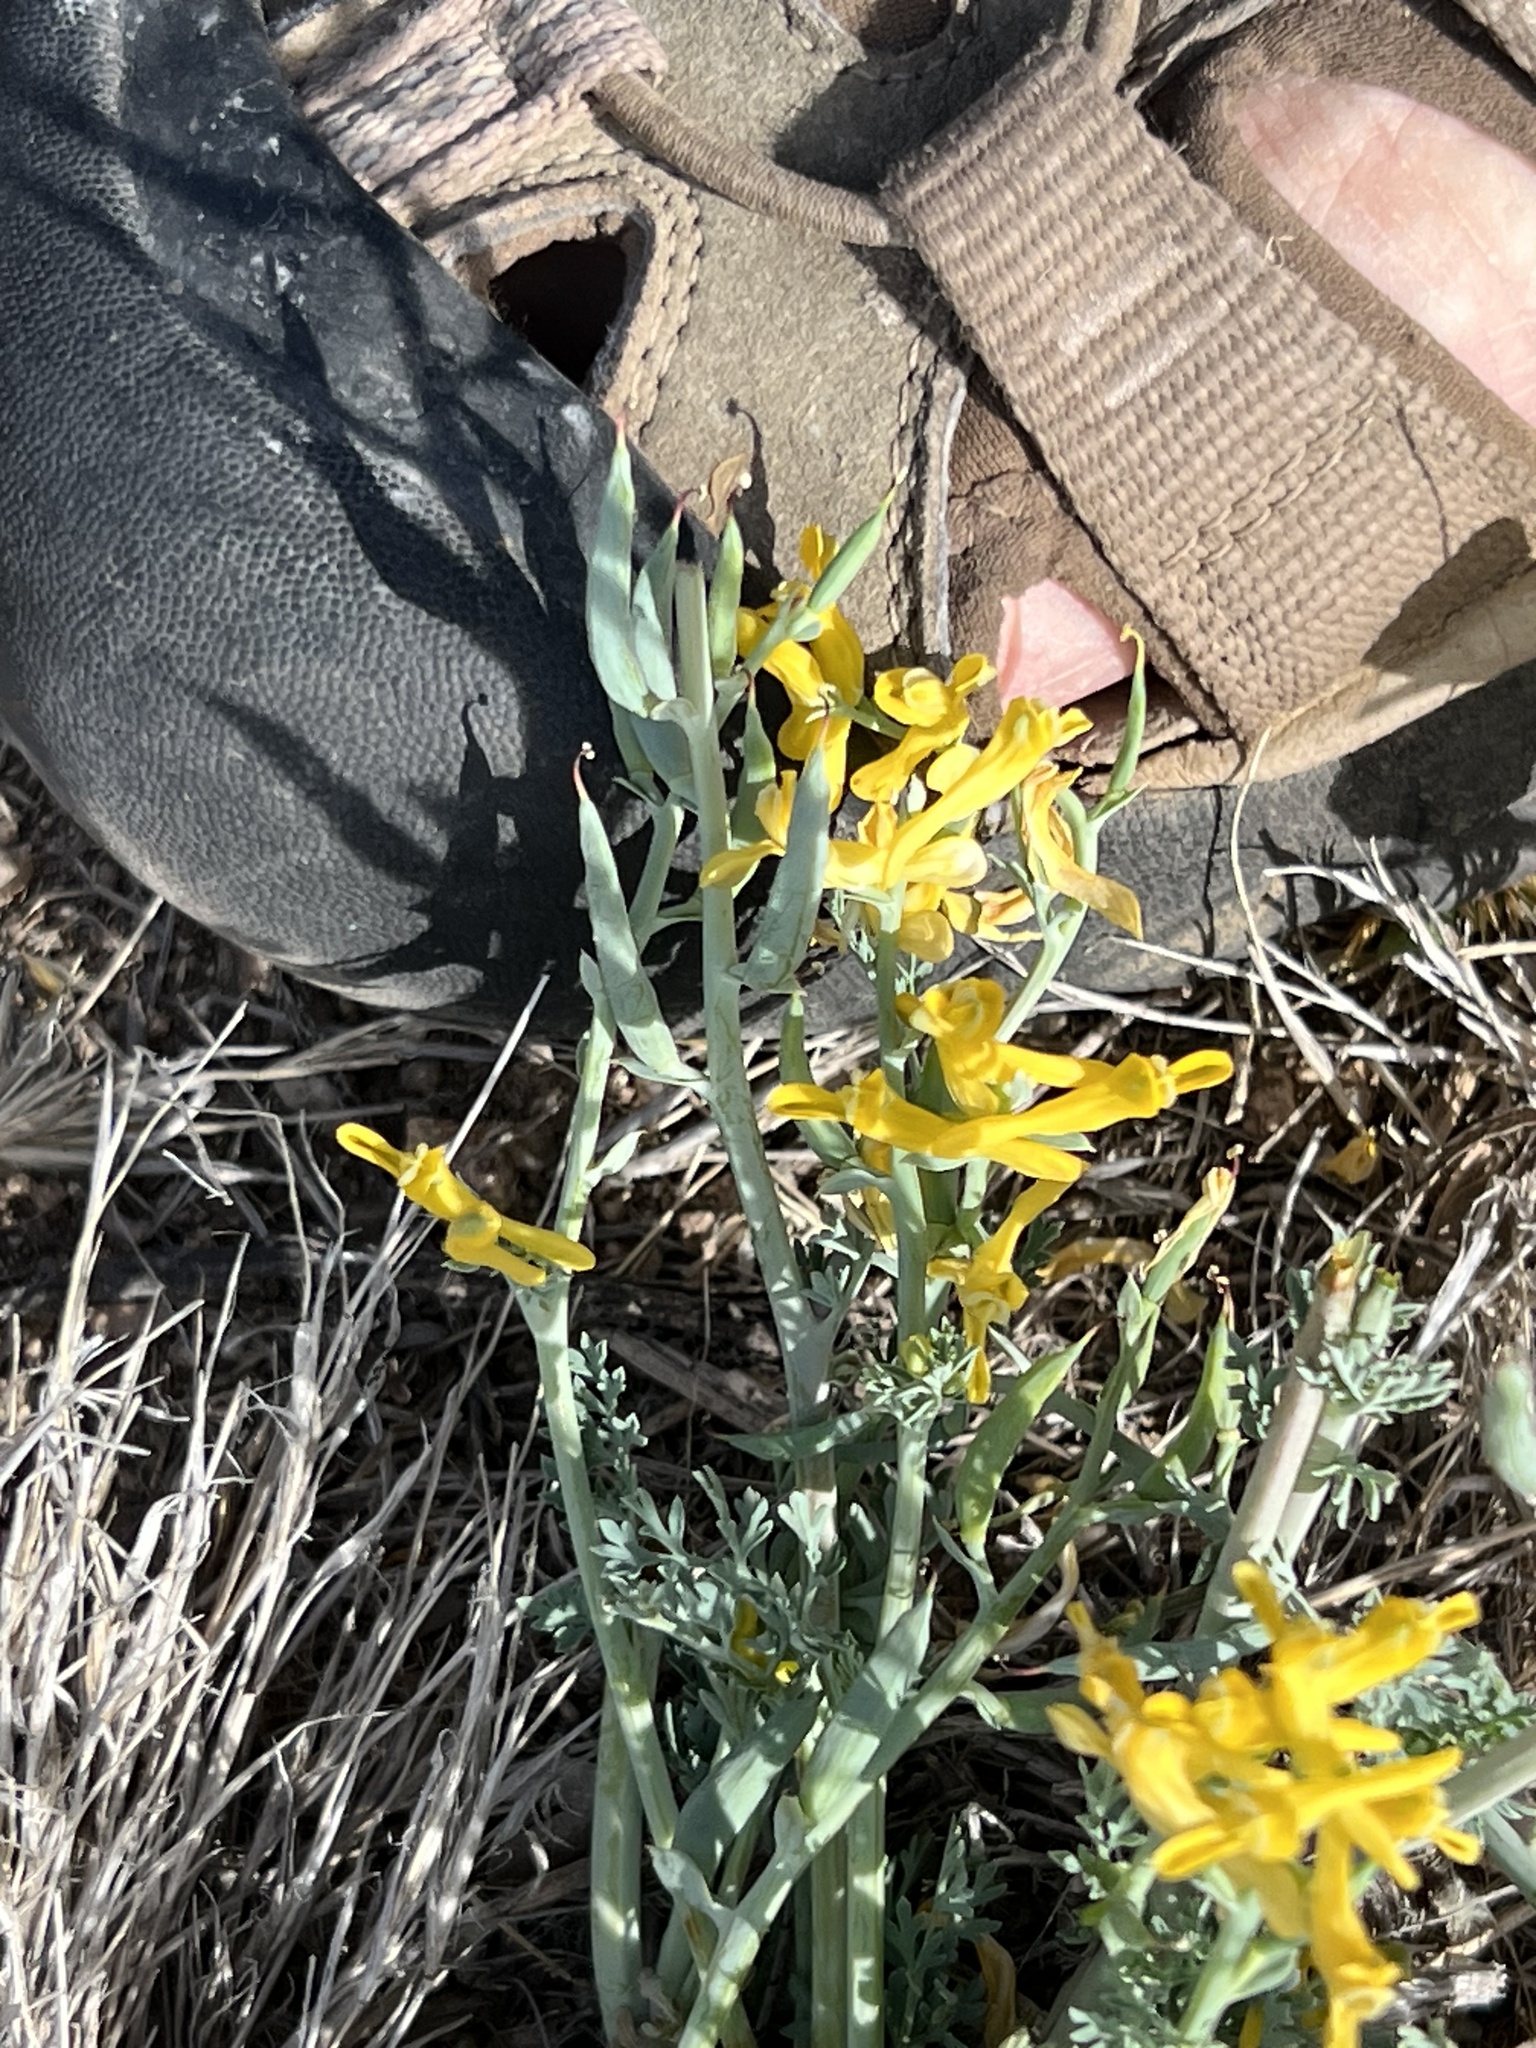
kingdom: Plantae
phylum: Tracheophyta
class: Magnoliopsida
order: Ranunculales
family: Papaveraceae
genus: Corydalis
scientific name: Corydalis aurea
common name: Golden corydalis
